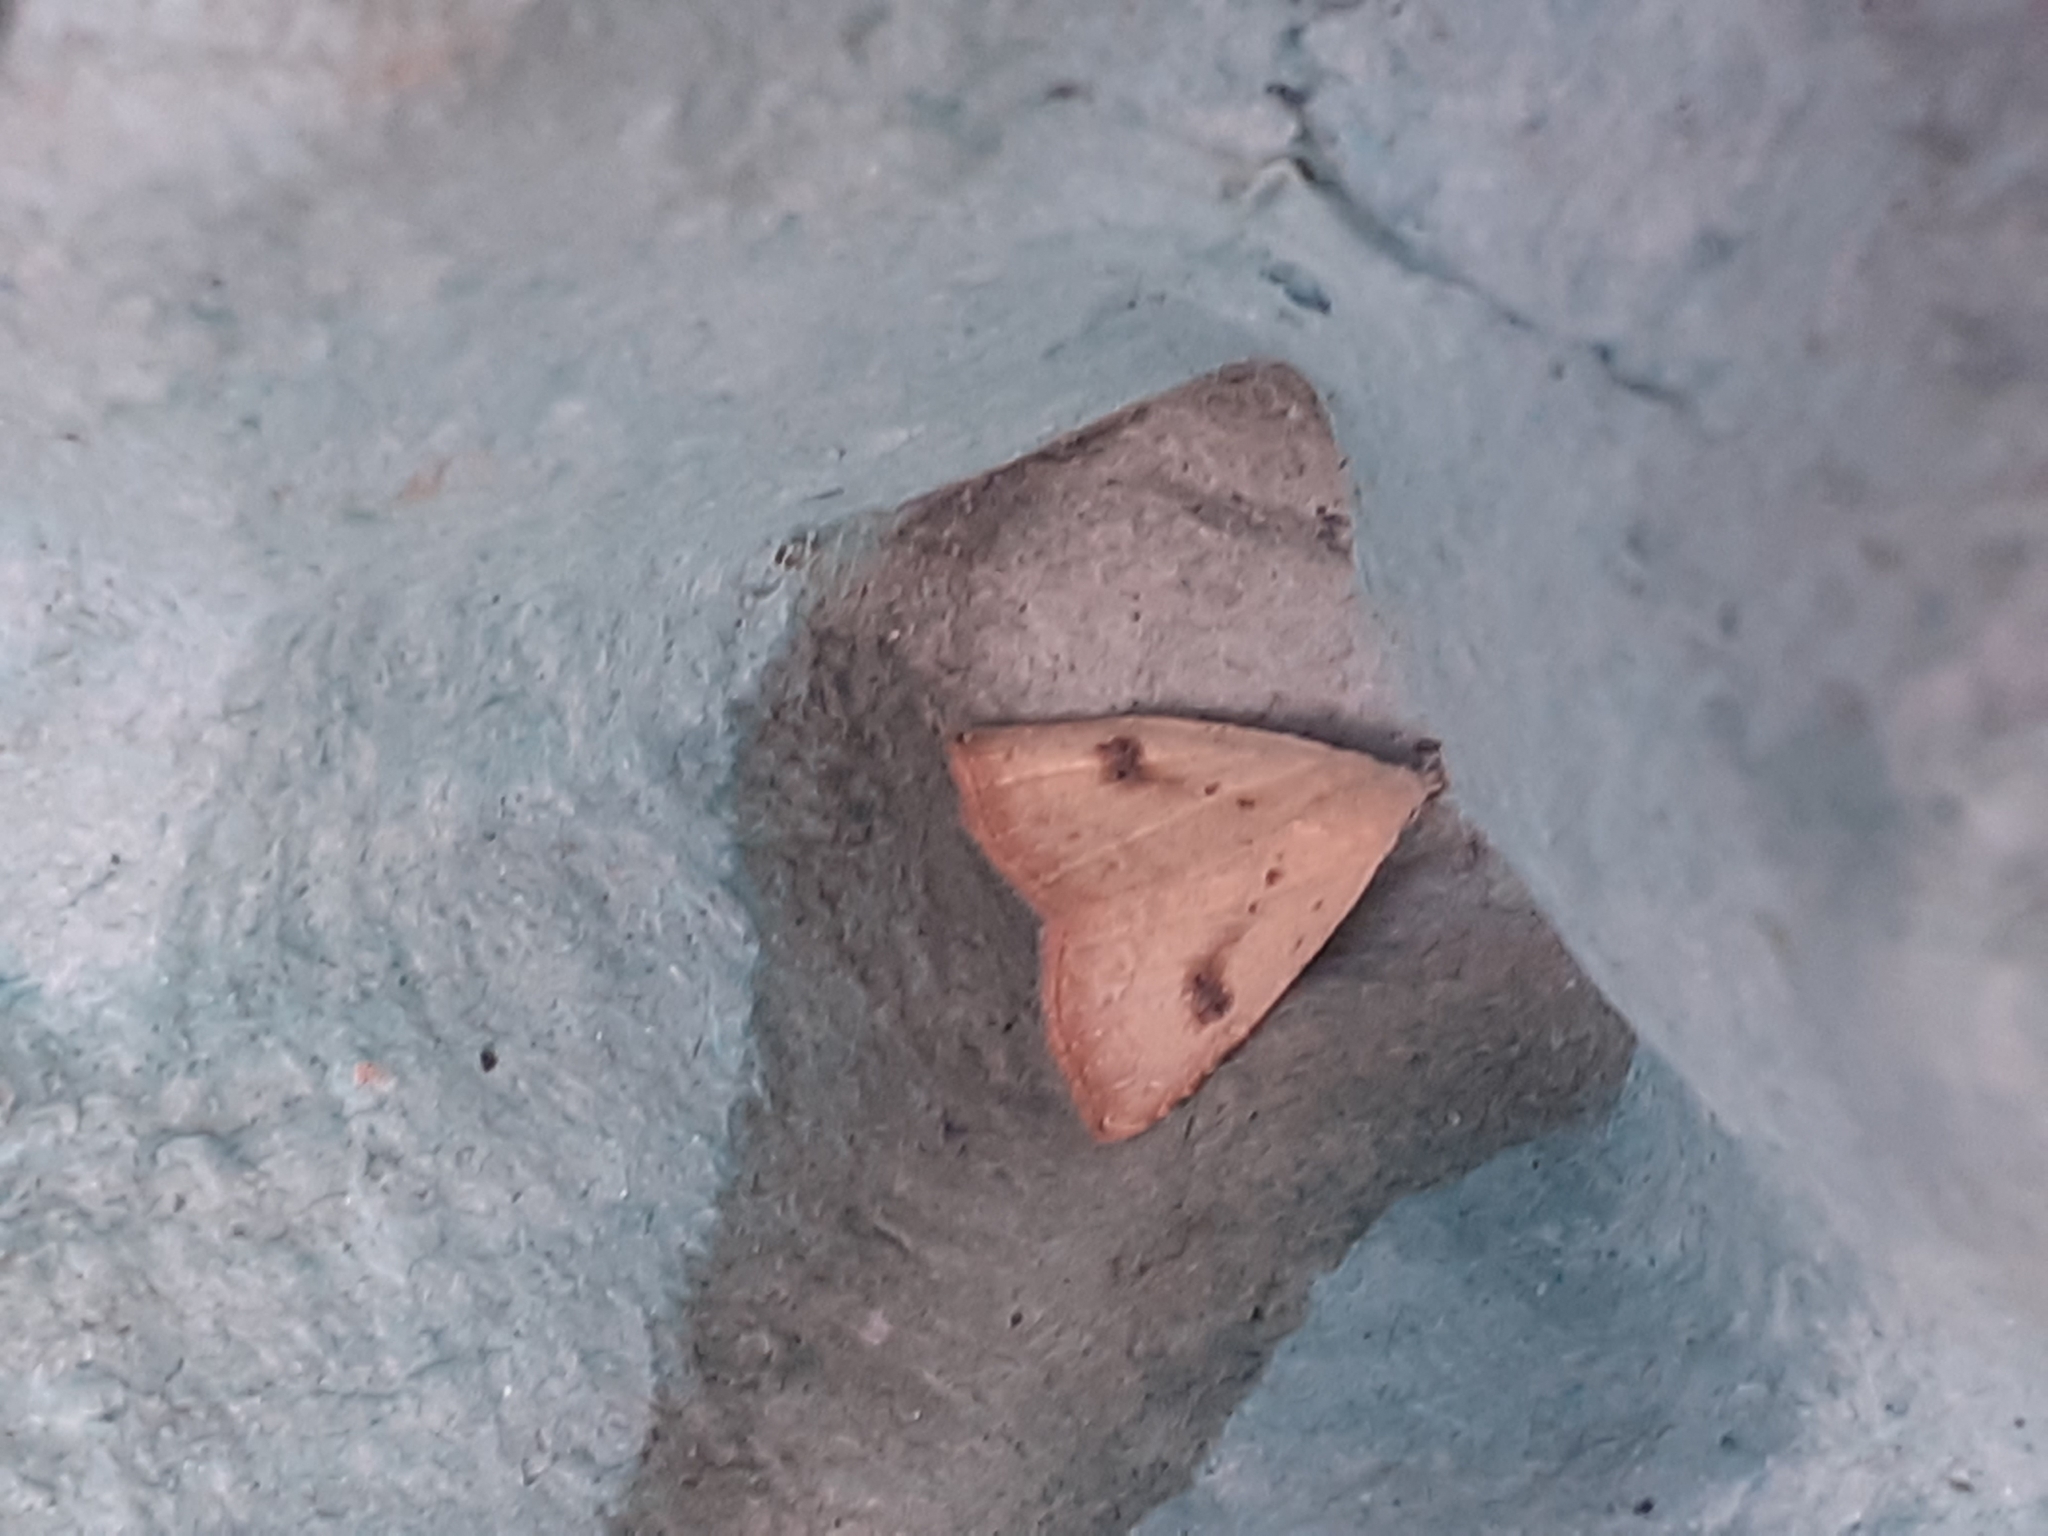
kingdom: Animalia
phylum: Arthropoda
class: Insecta
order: Lepidoptera
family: Erebidae
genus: Rivula
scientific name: Rivula sericealis
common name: Straw dot
